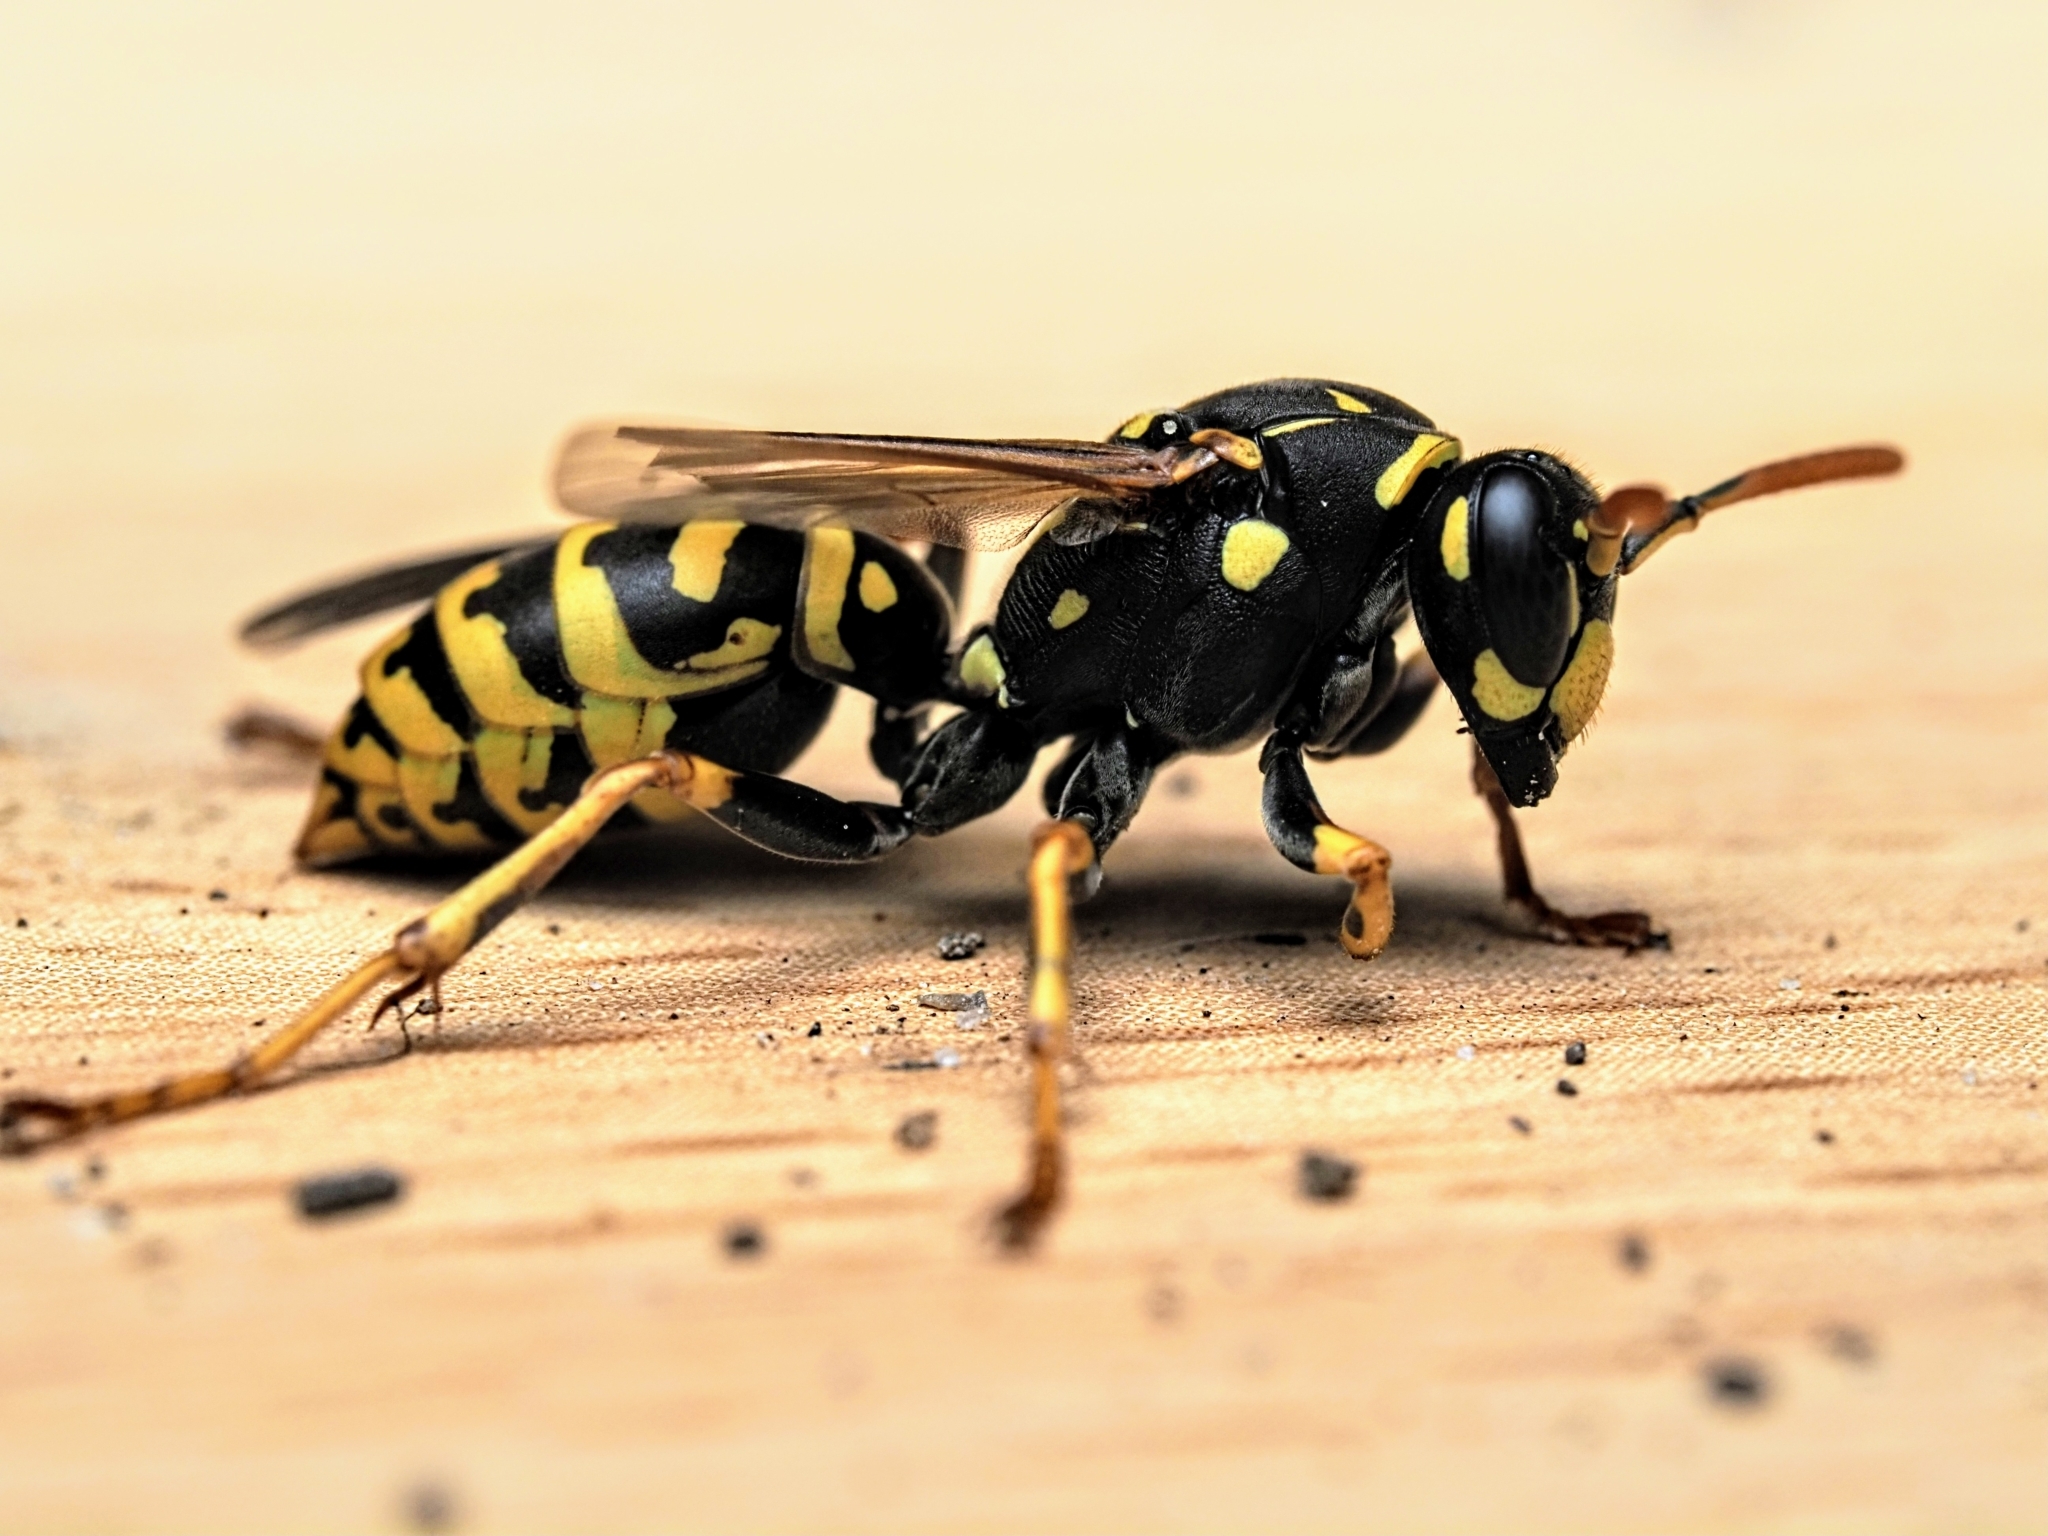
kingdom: Animalia
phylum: Arthropoda
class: Insecta
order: Hymenoptera
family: Eumenidae
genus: Polistes
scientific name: Polistes dominula
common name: Paper wasp
